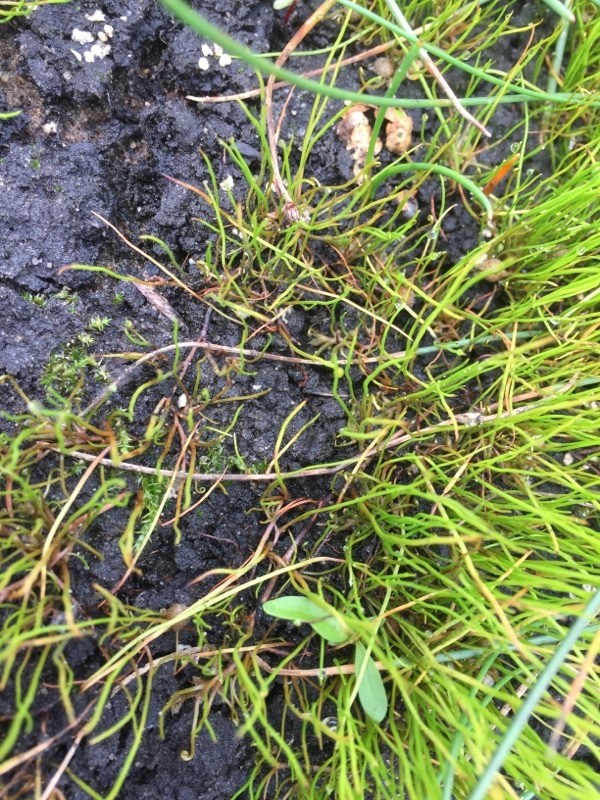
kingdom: Plantae
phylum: Tracheophyta
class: Polypodiopsida
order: Salviniales
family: Marsileaceae
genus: Pilularia
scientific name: Pilularia globulifera
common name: Pillwort
